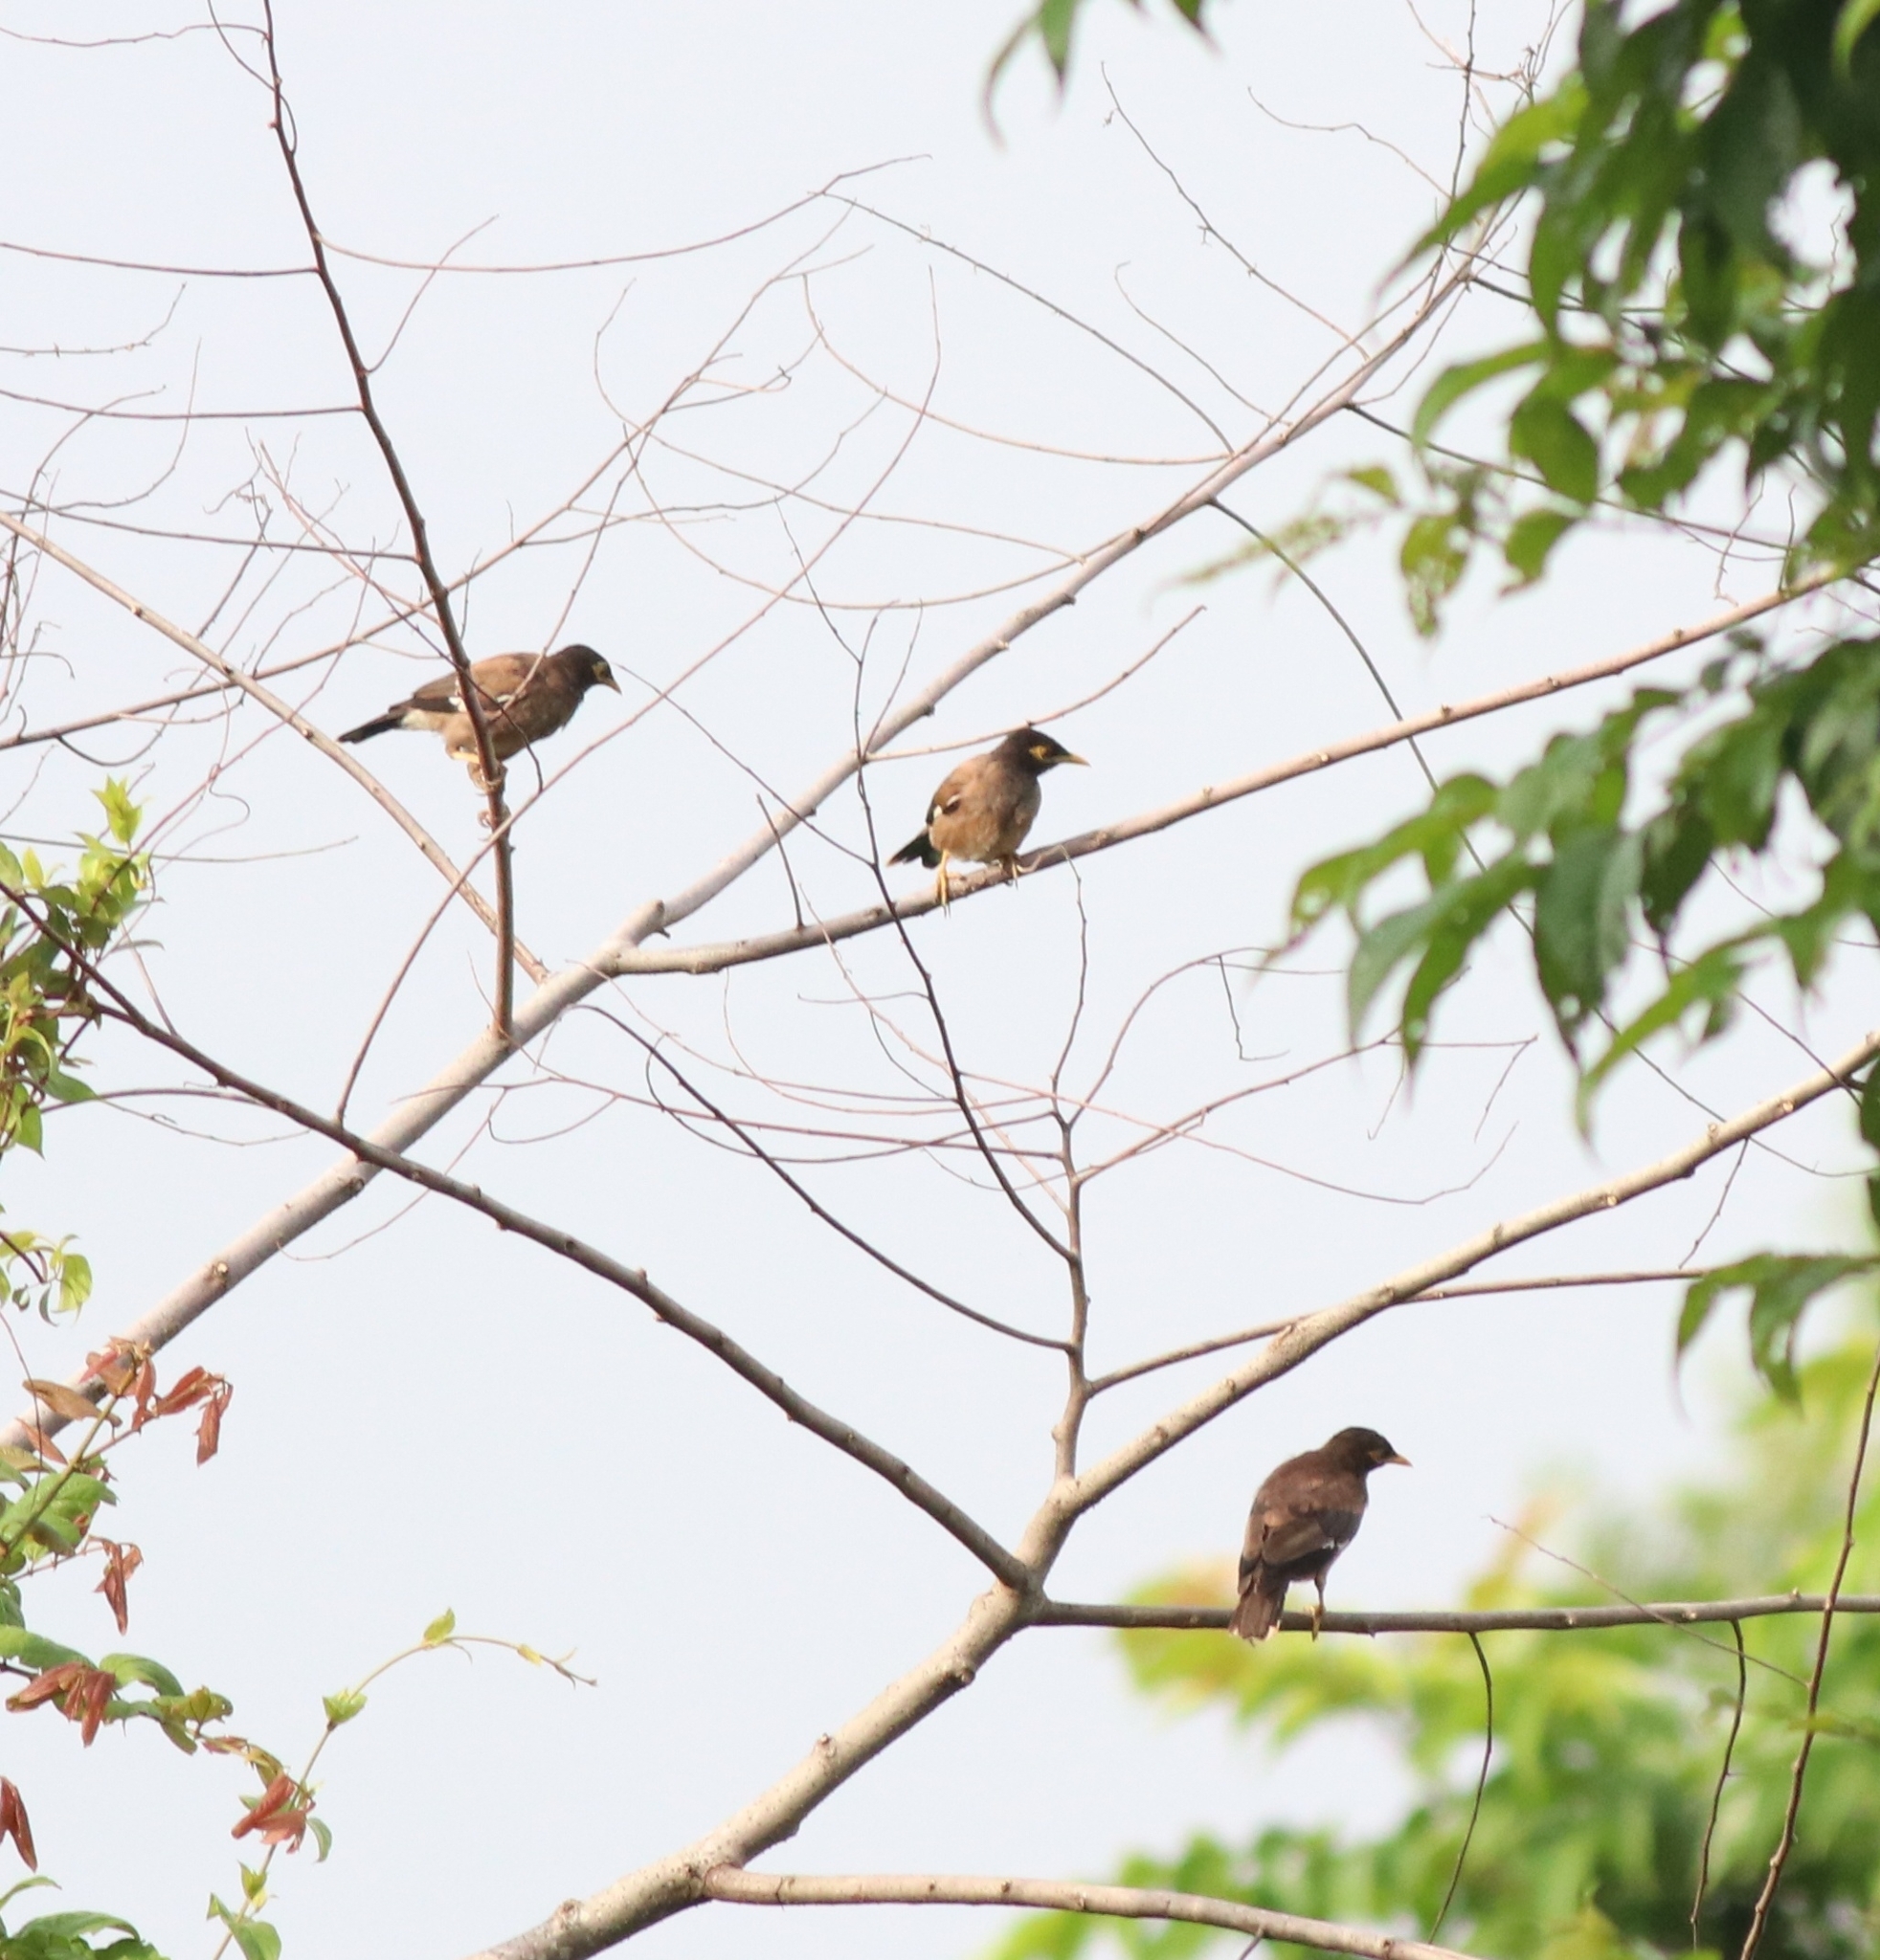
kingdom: Animalia
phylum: Chordata
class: Aves
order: Passeriformes
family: Sturnidae
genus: Acridotheres
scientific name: Acridotheres tristis
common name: Common myna
